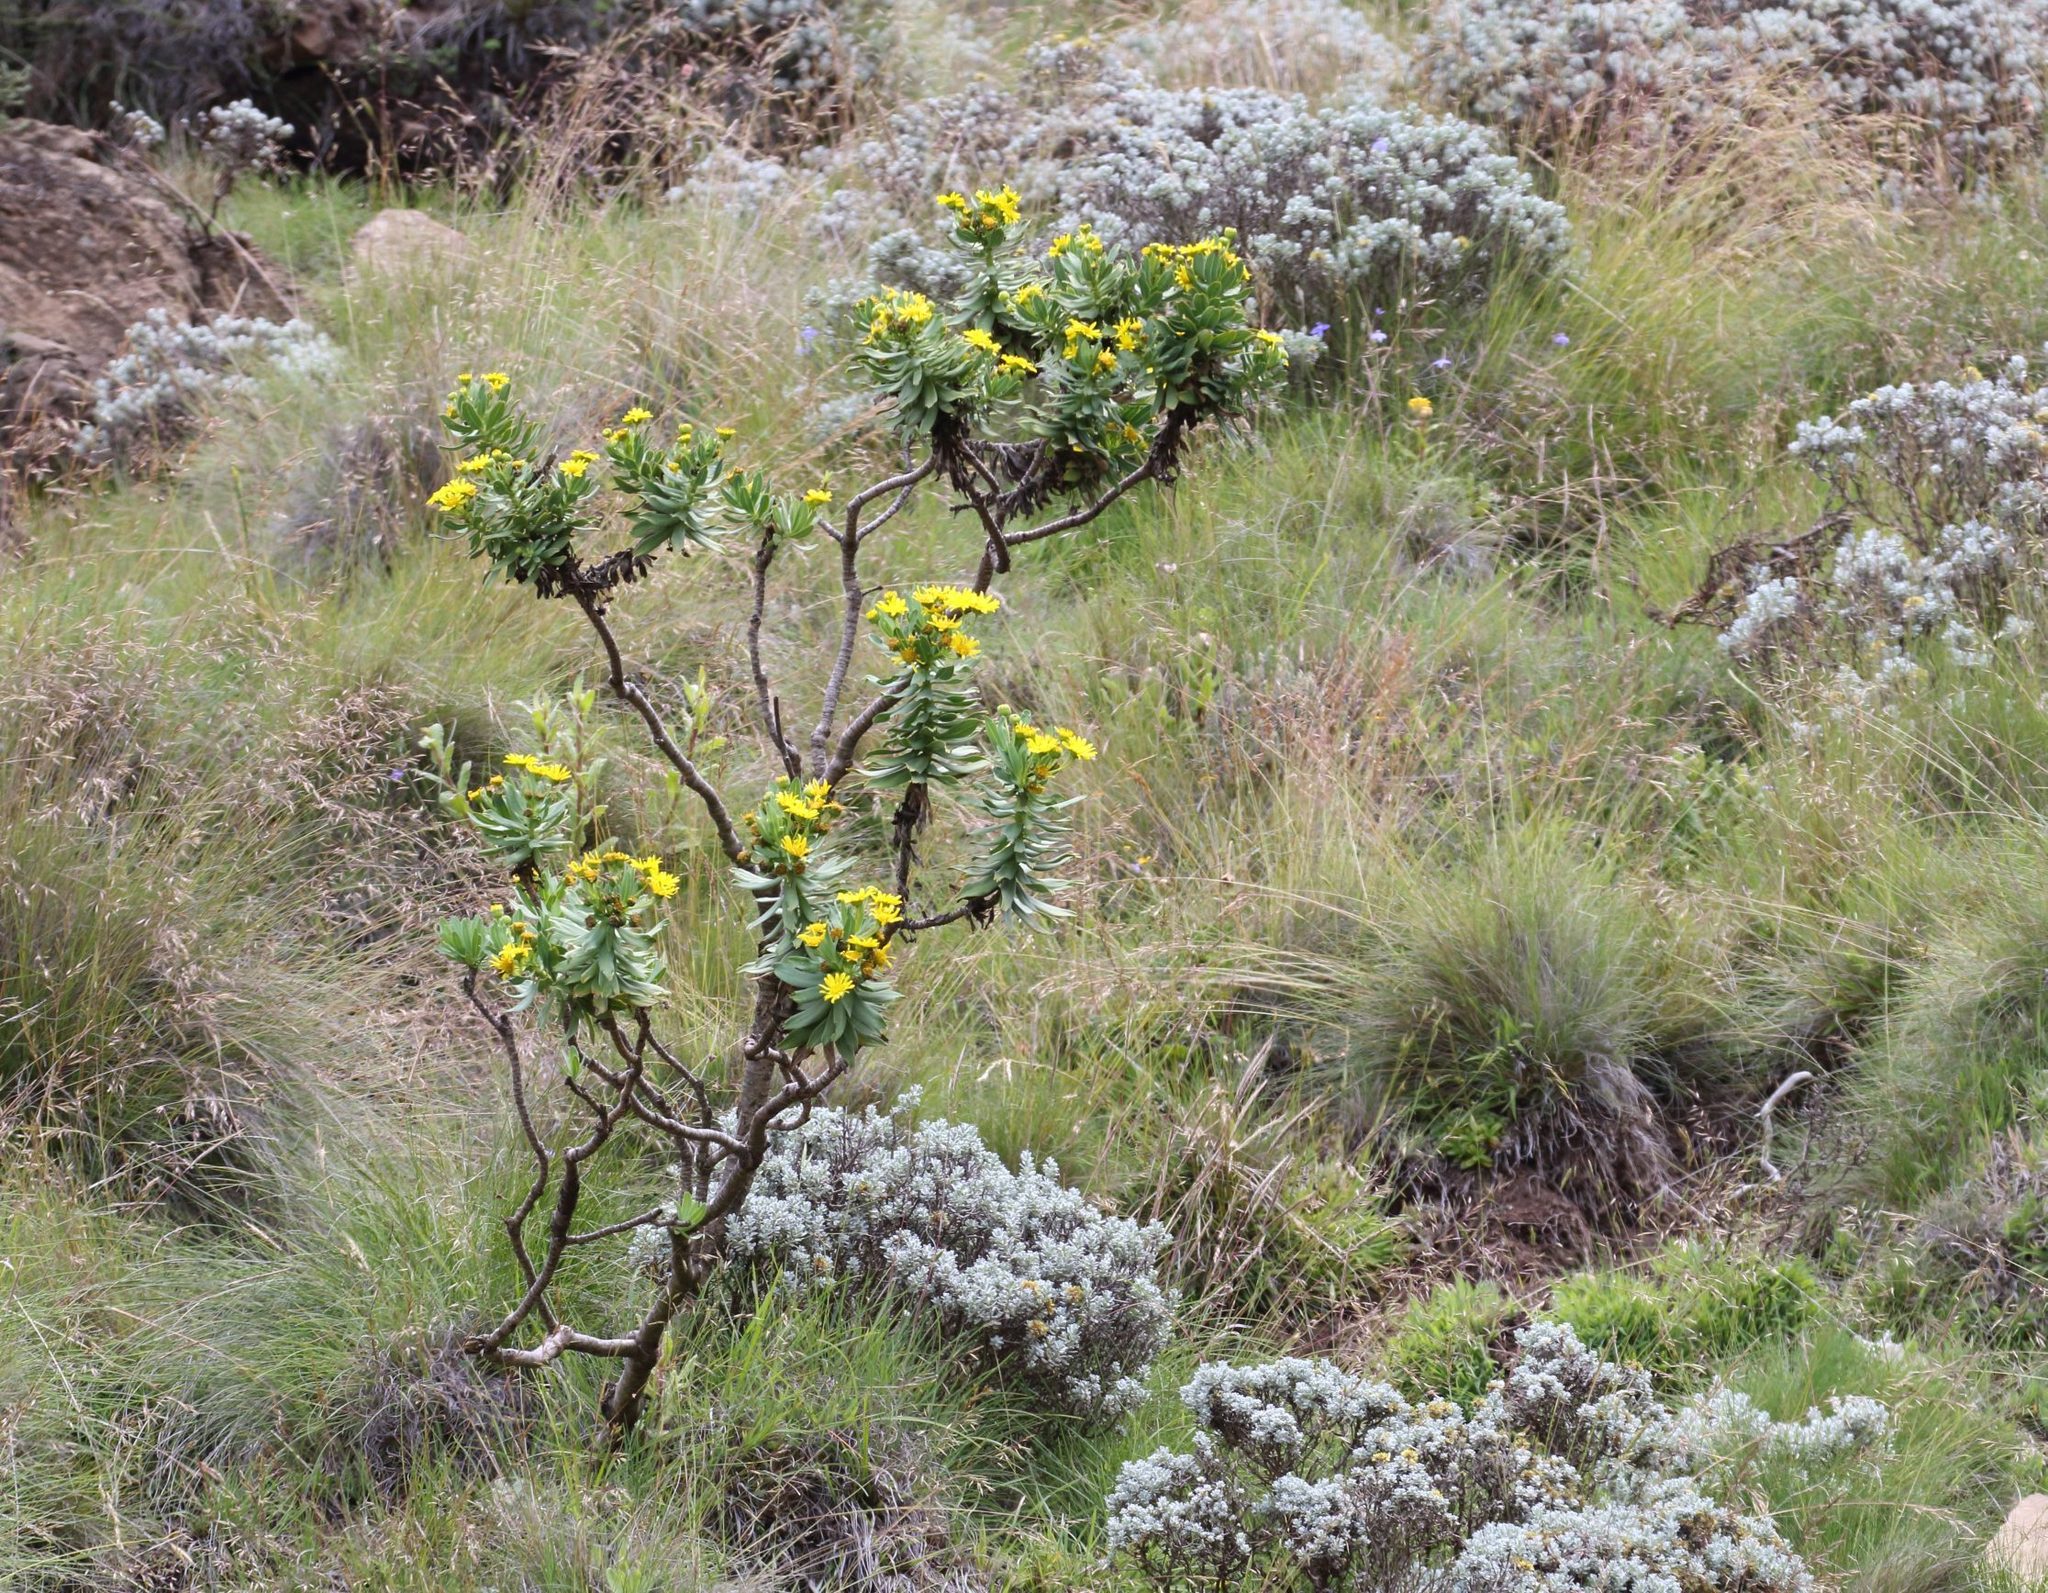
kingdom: Plantae
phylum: Tracheophyta
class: Magnoliopsida
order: Asterales
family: Asteraceae
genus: Euryops
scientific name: Euryops evansii
